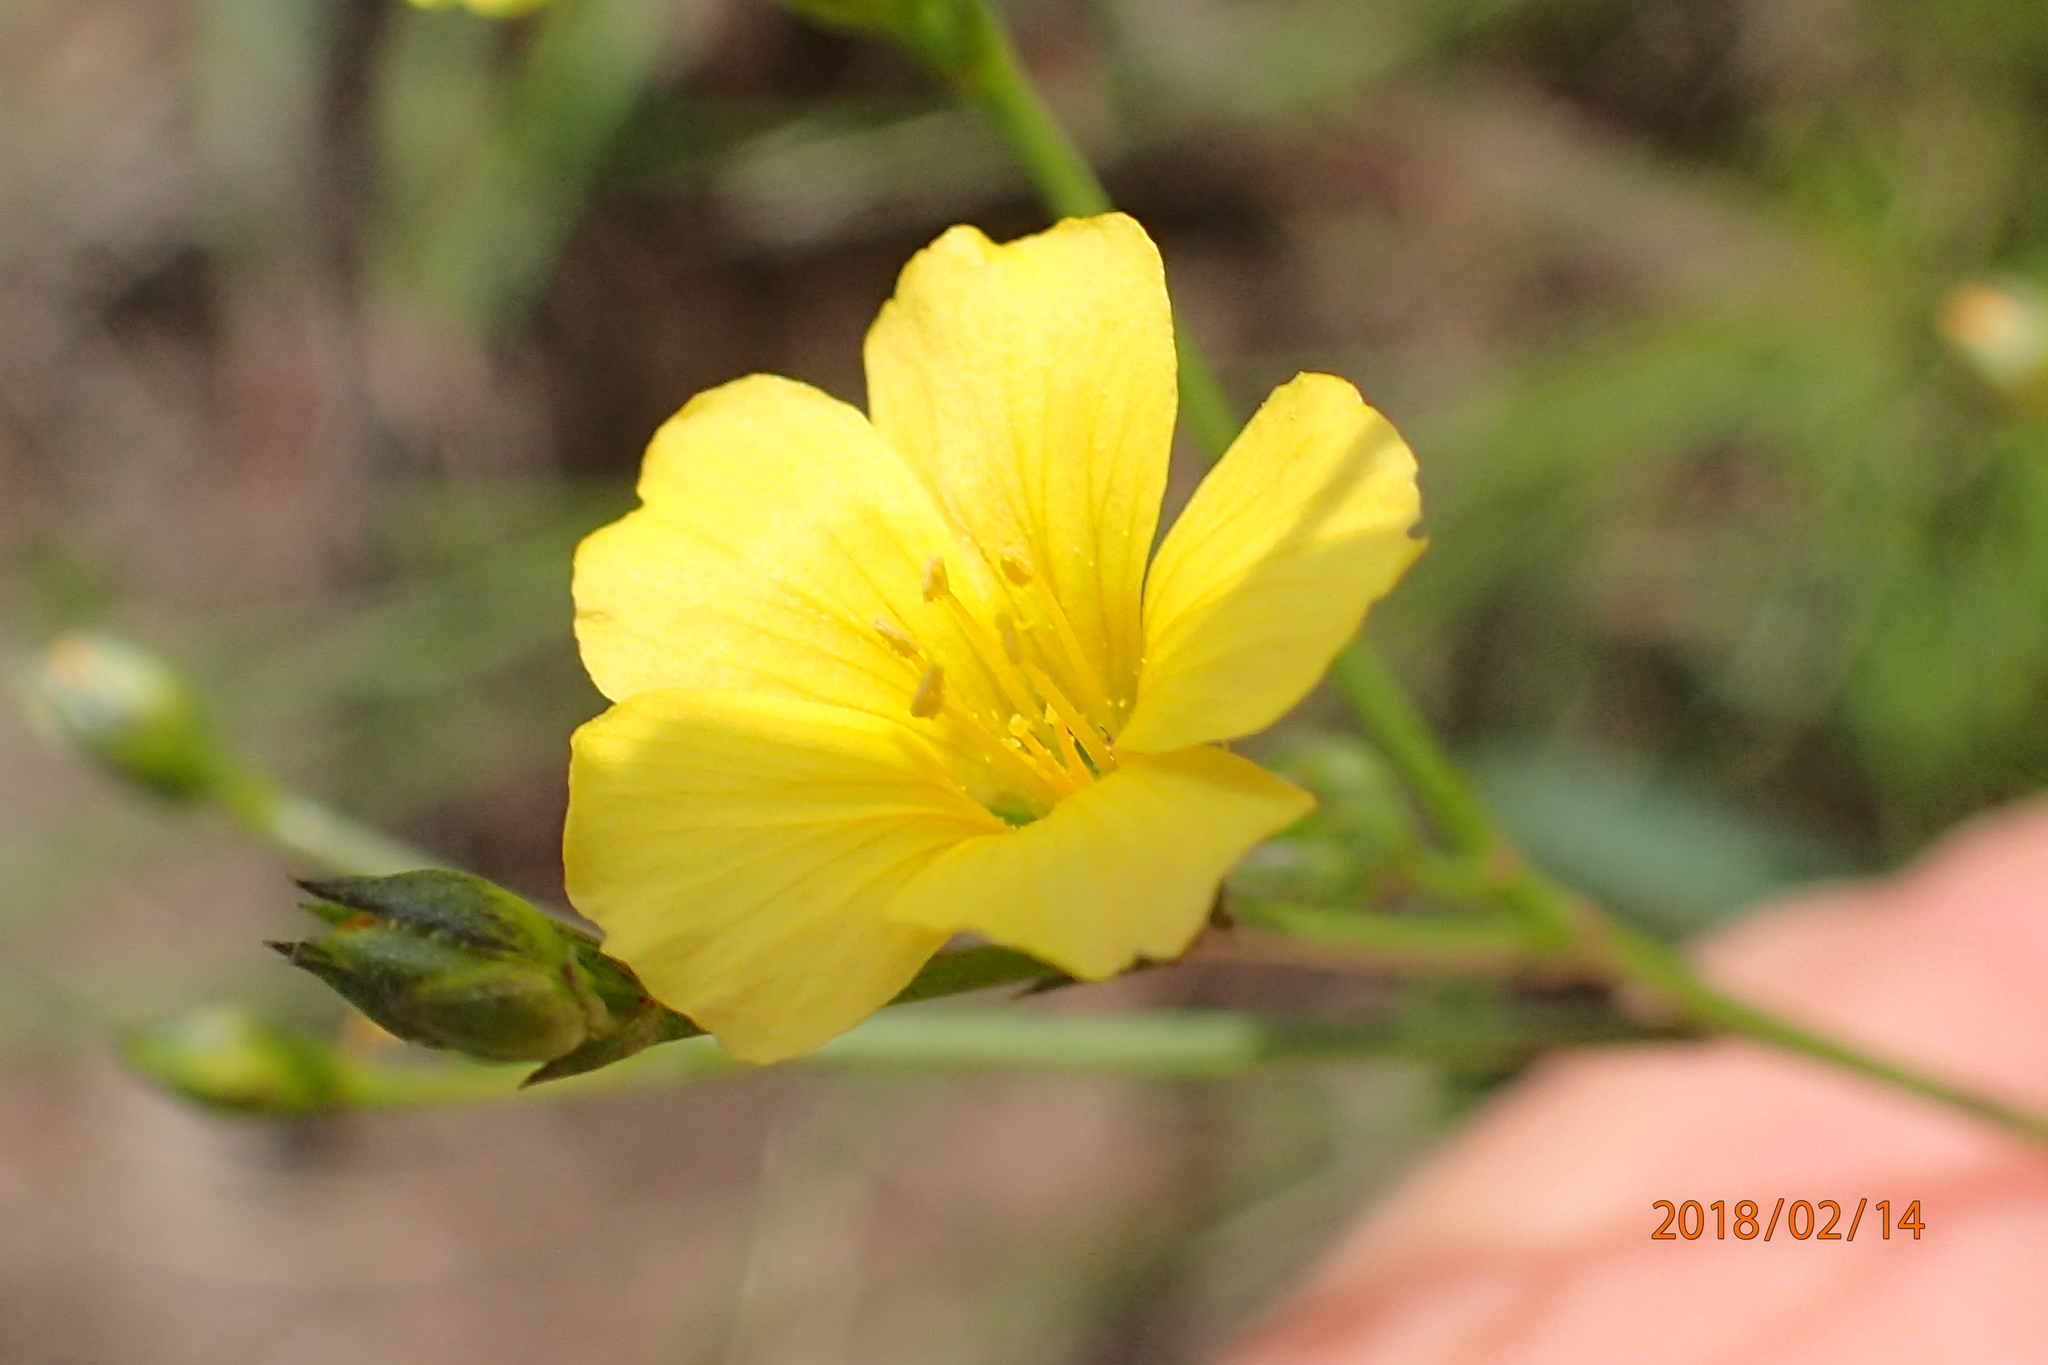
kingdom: Plantae
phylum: Tracheophyta
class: Magnoliopsida
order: Malpighiales
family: Linaceae
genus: Linum
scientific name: Linum thunbergii
